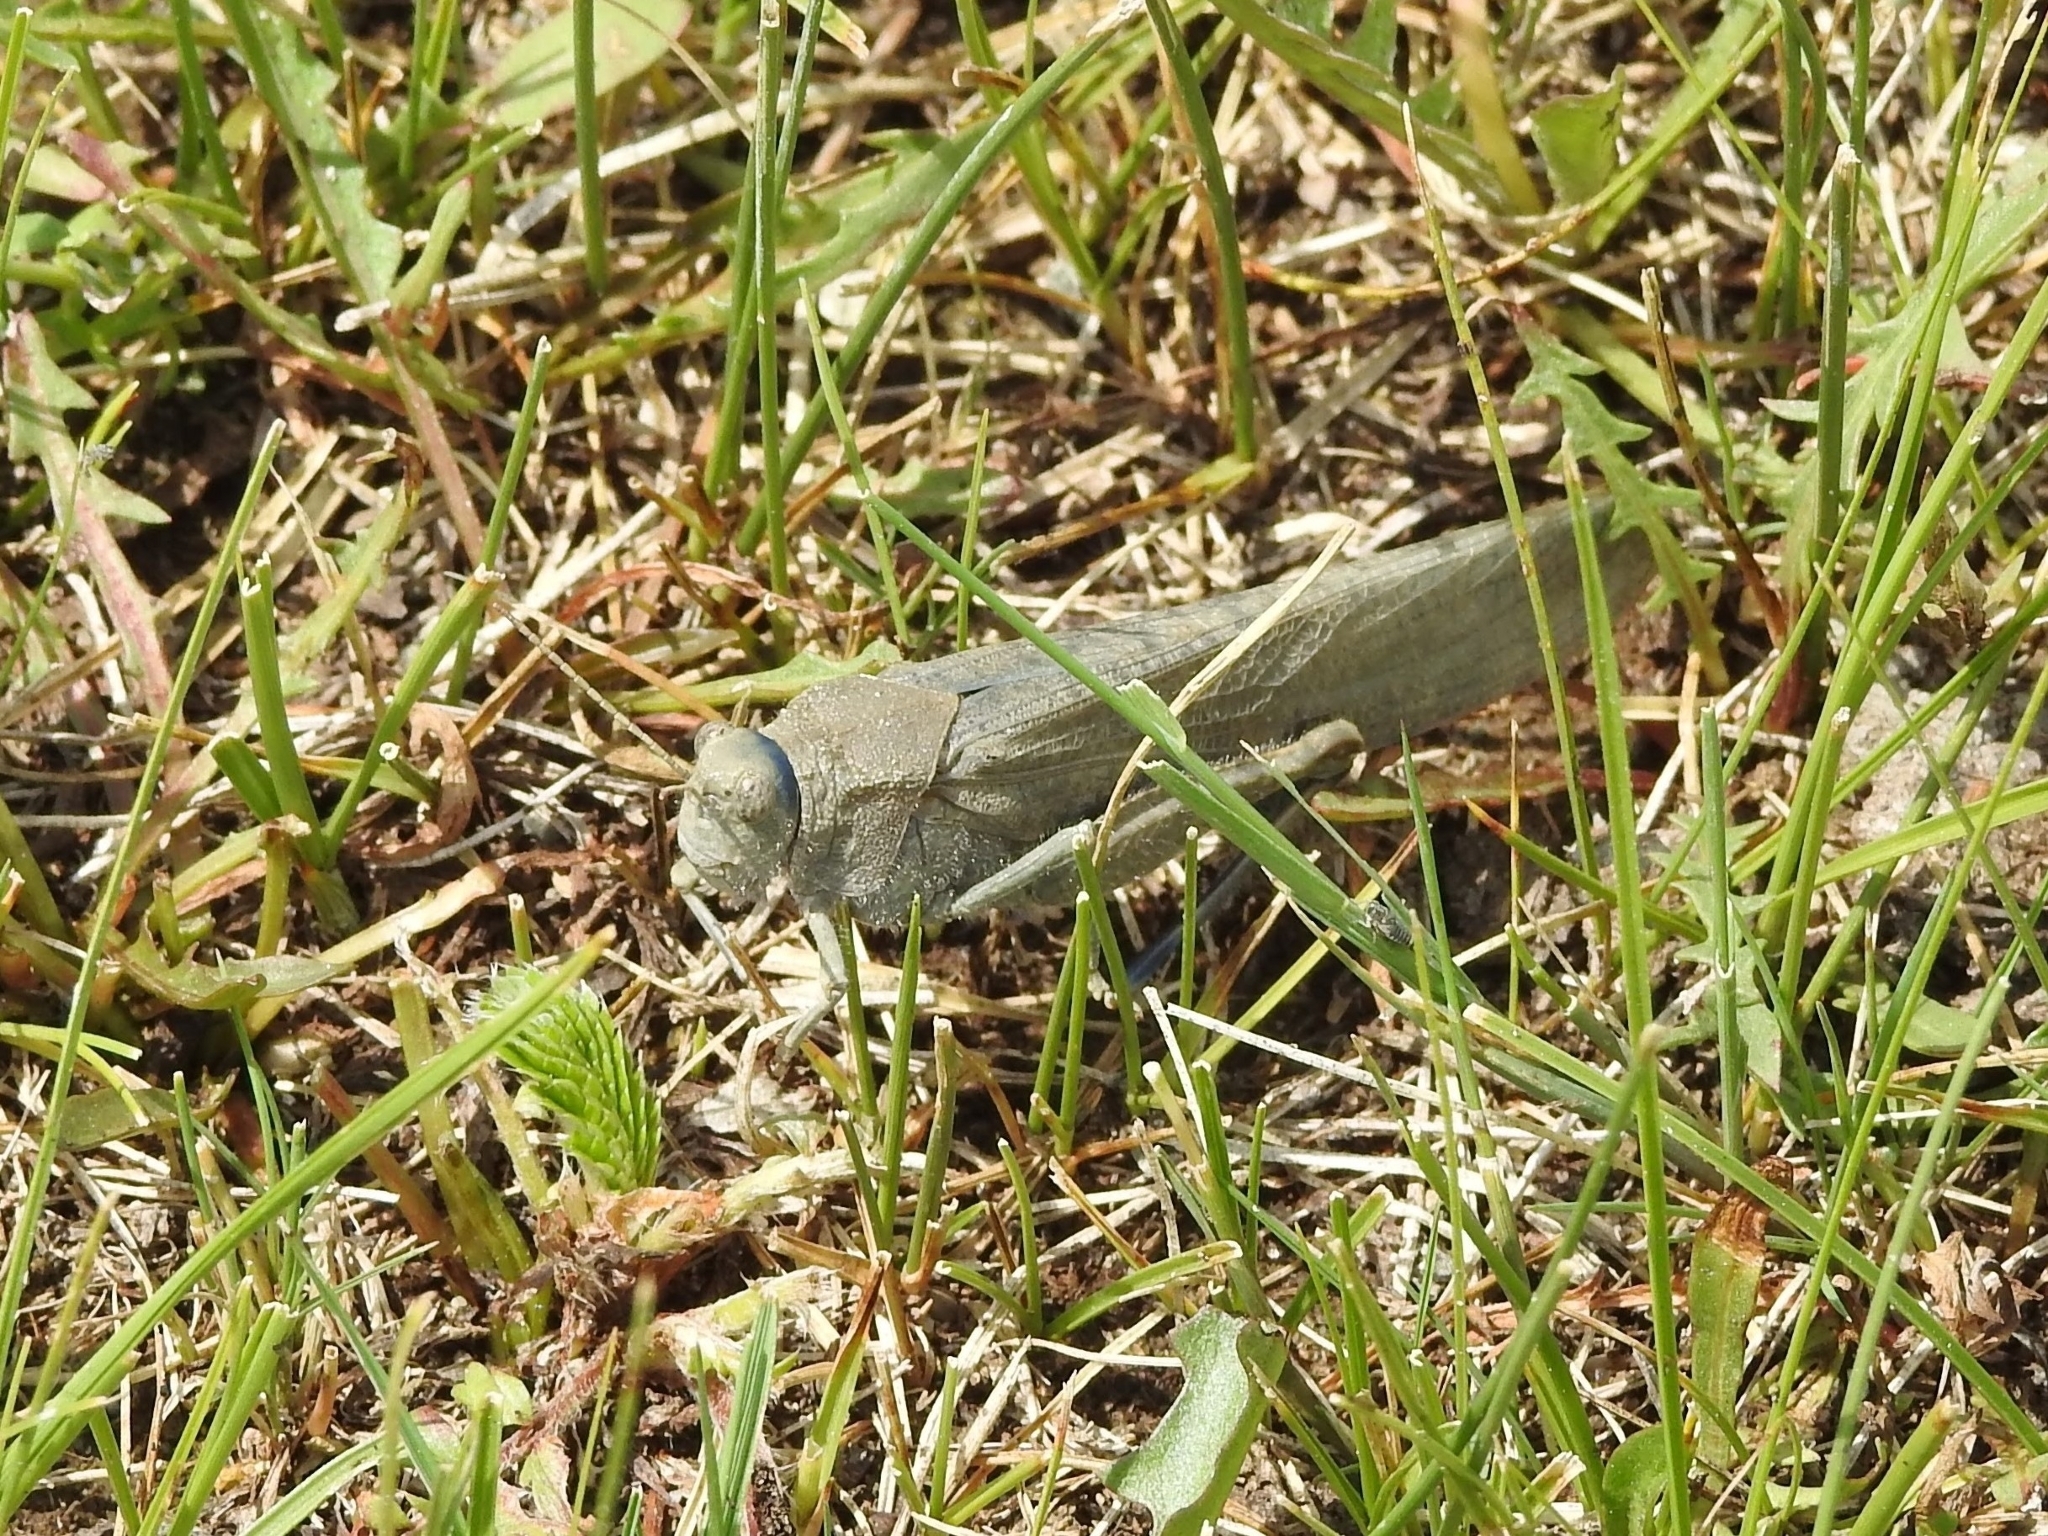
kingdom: Animalia
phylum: Arthropoda
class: Insecta
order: Orthoptera
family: Acrididae
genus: Bryodema
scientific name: Bryodema gebleri
